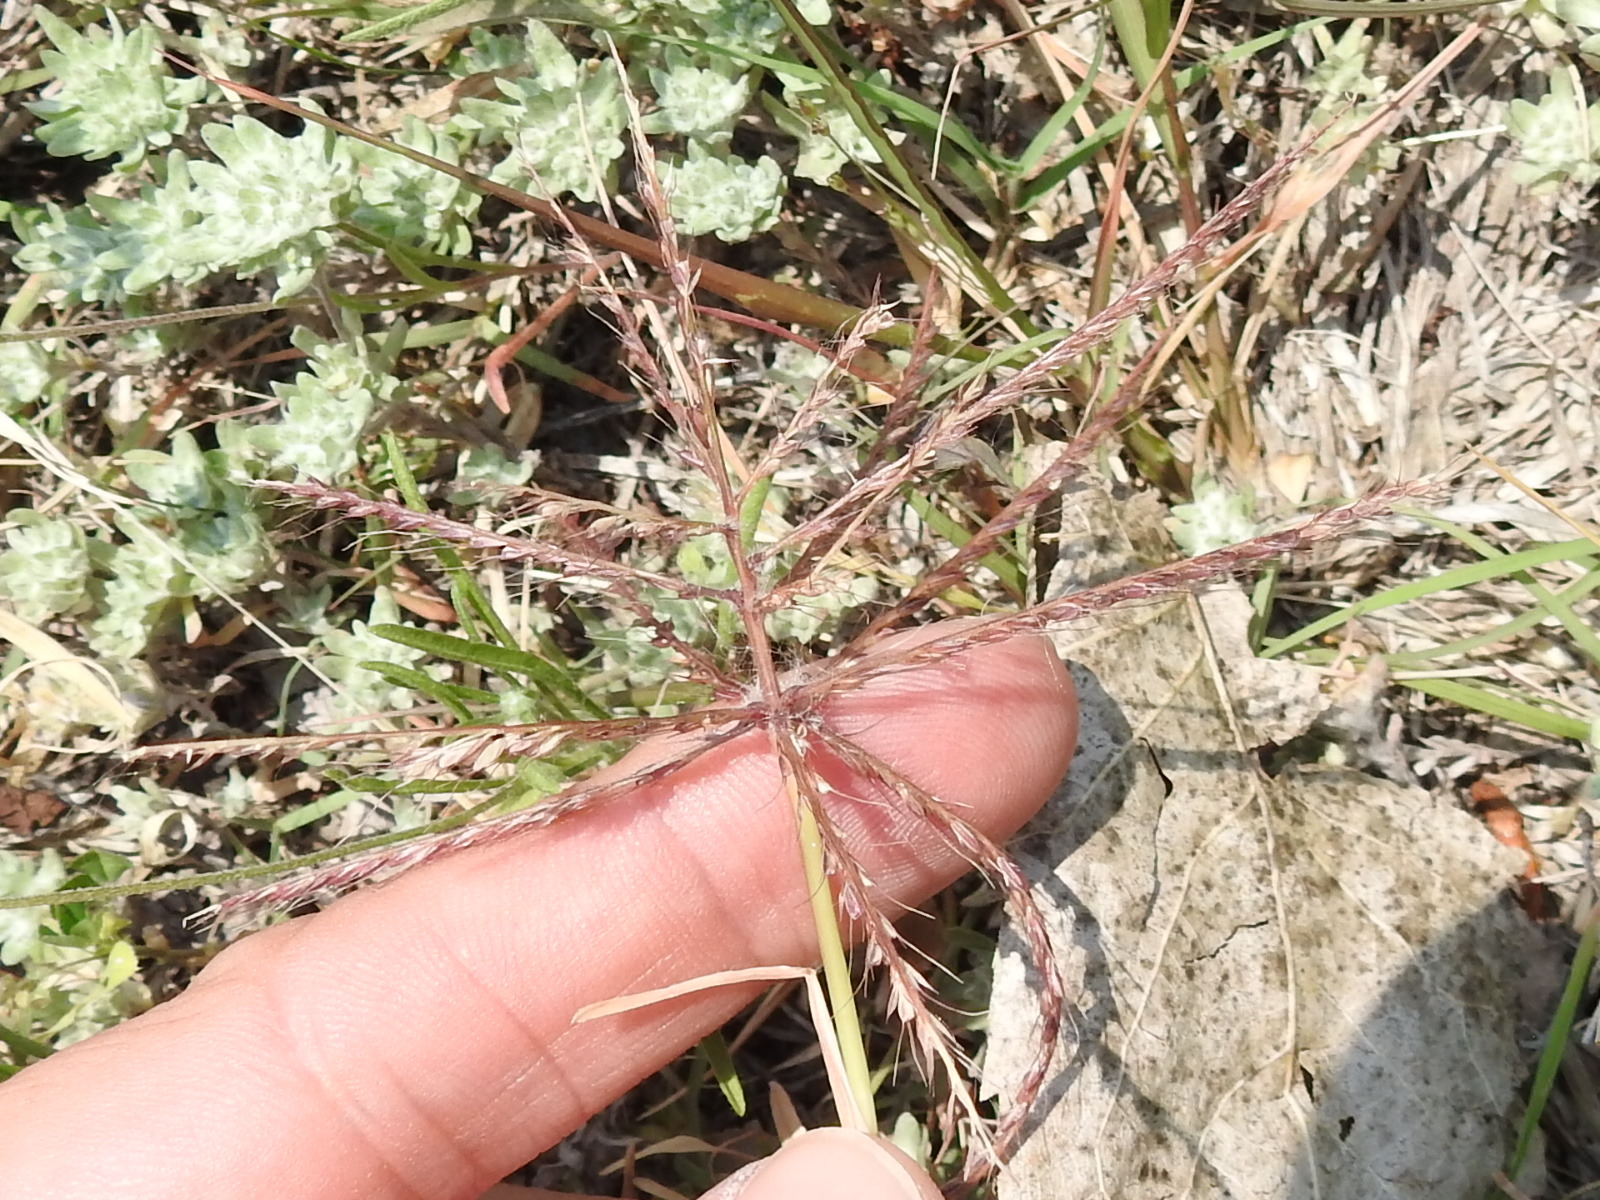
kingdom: Plantae
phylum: Tracheophyta
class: Liliopsida
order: Poales
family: Poaceae
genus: Chloris
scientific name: Chloris verticillata
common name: Tumble windmill grass
